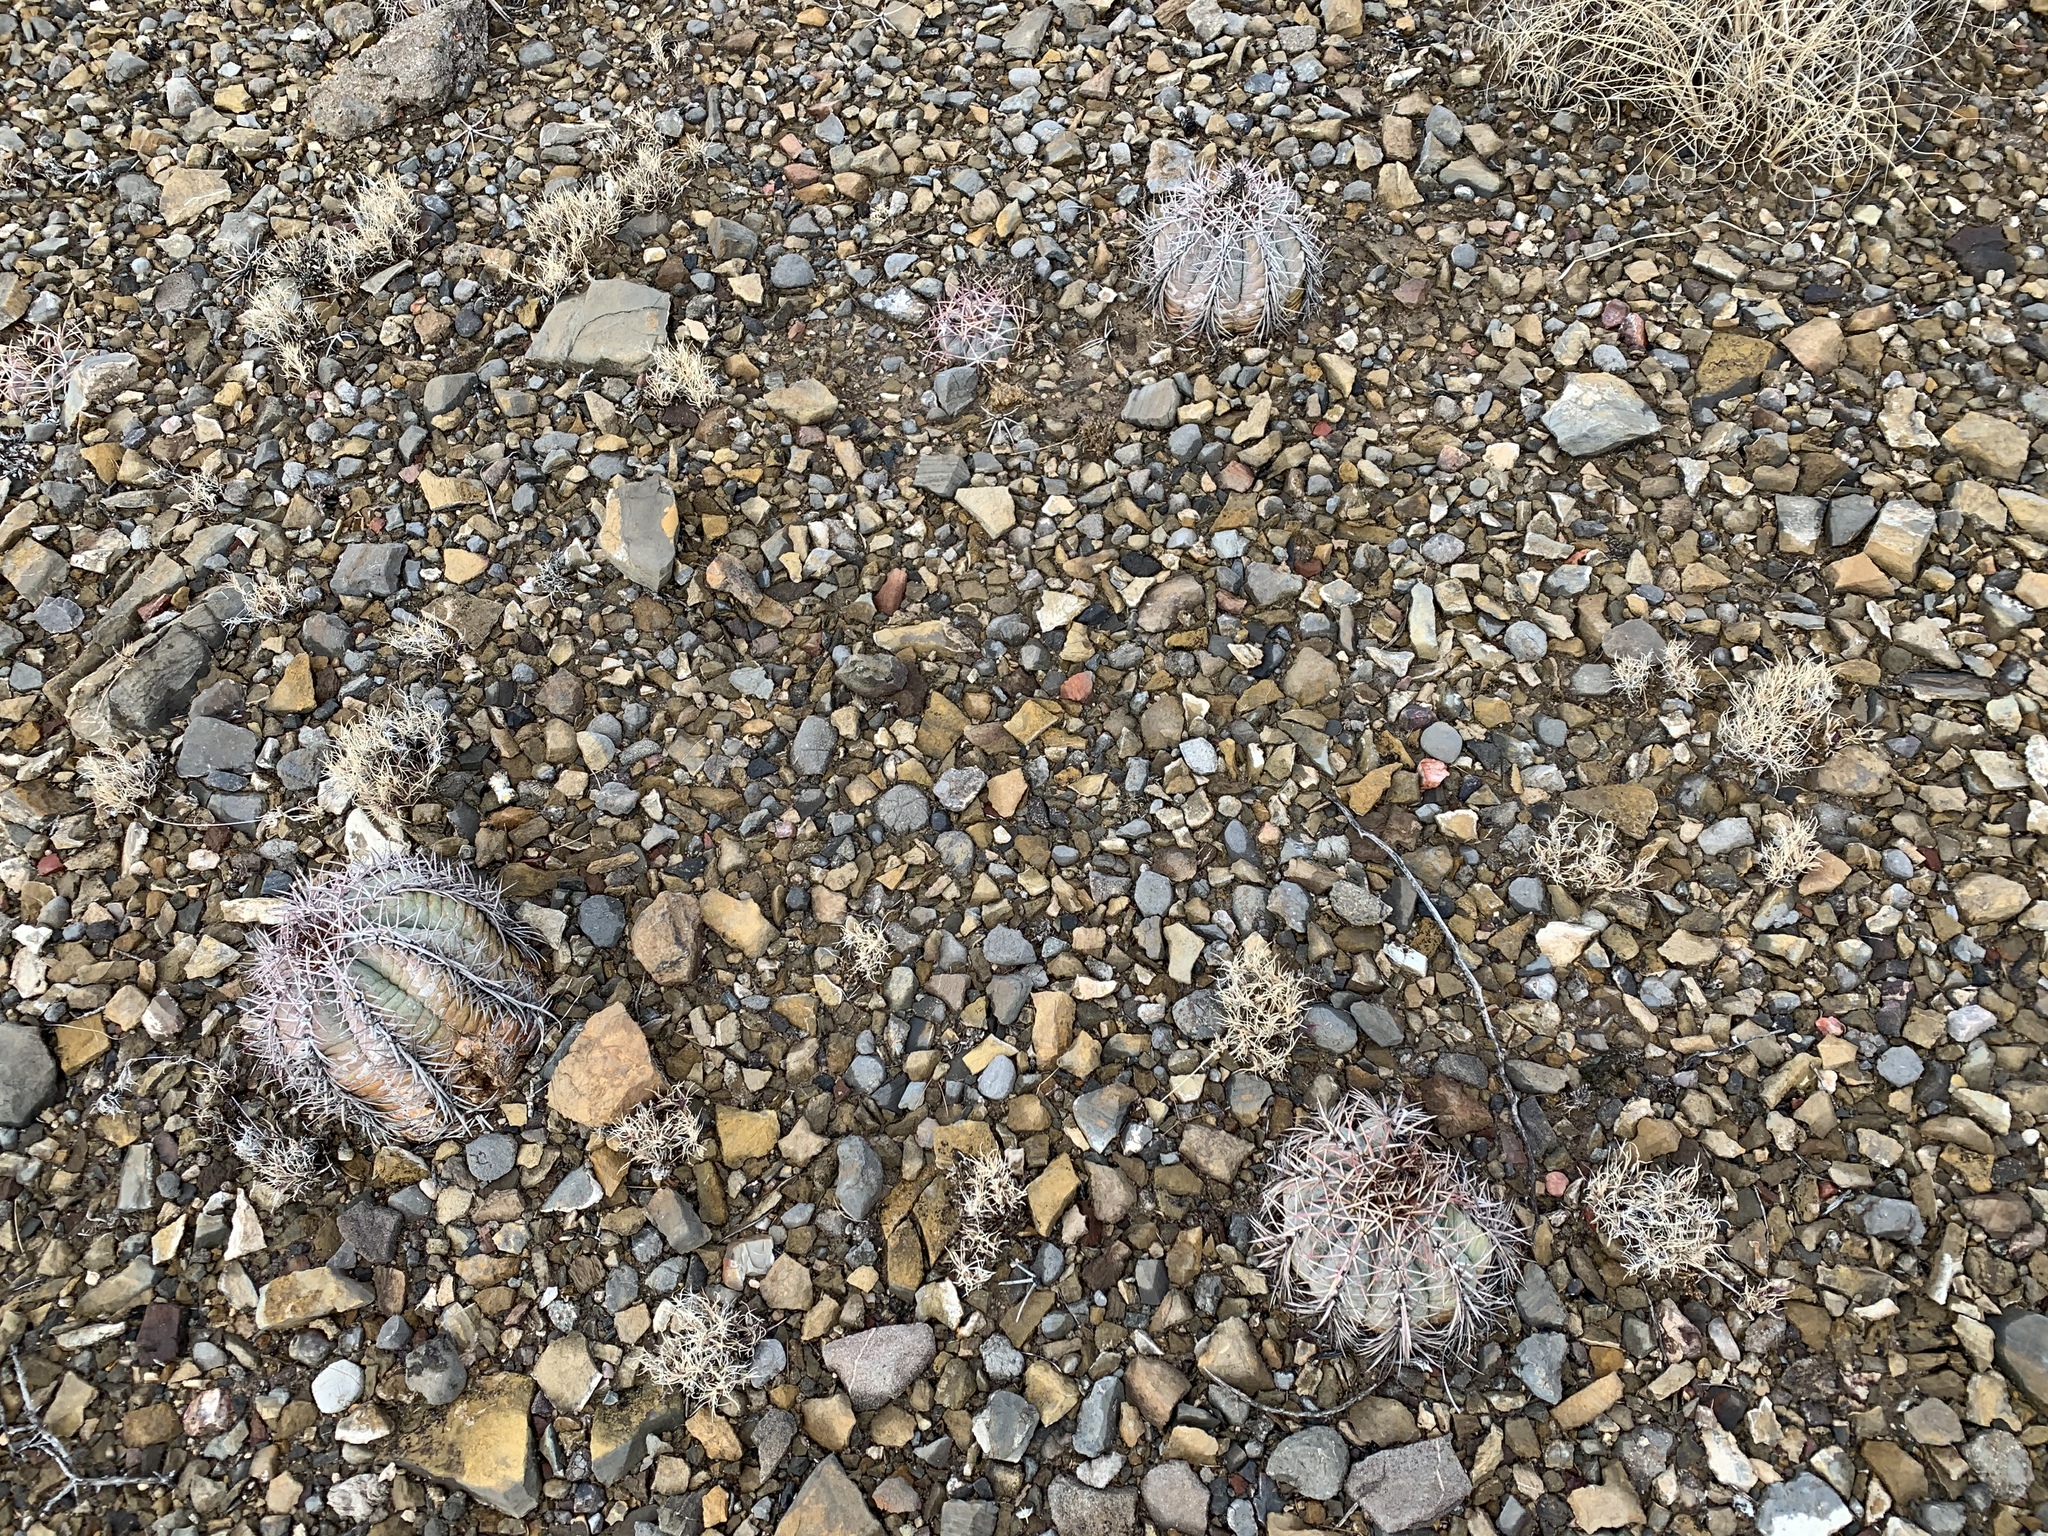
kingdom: Plantae
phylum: Tracheophyta
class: Magnoliopsida
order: Caryophyllales
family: Cactaceae
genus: Echinocactus
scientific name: Echinocactus horizonthalonius
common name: Devilshead
